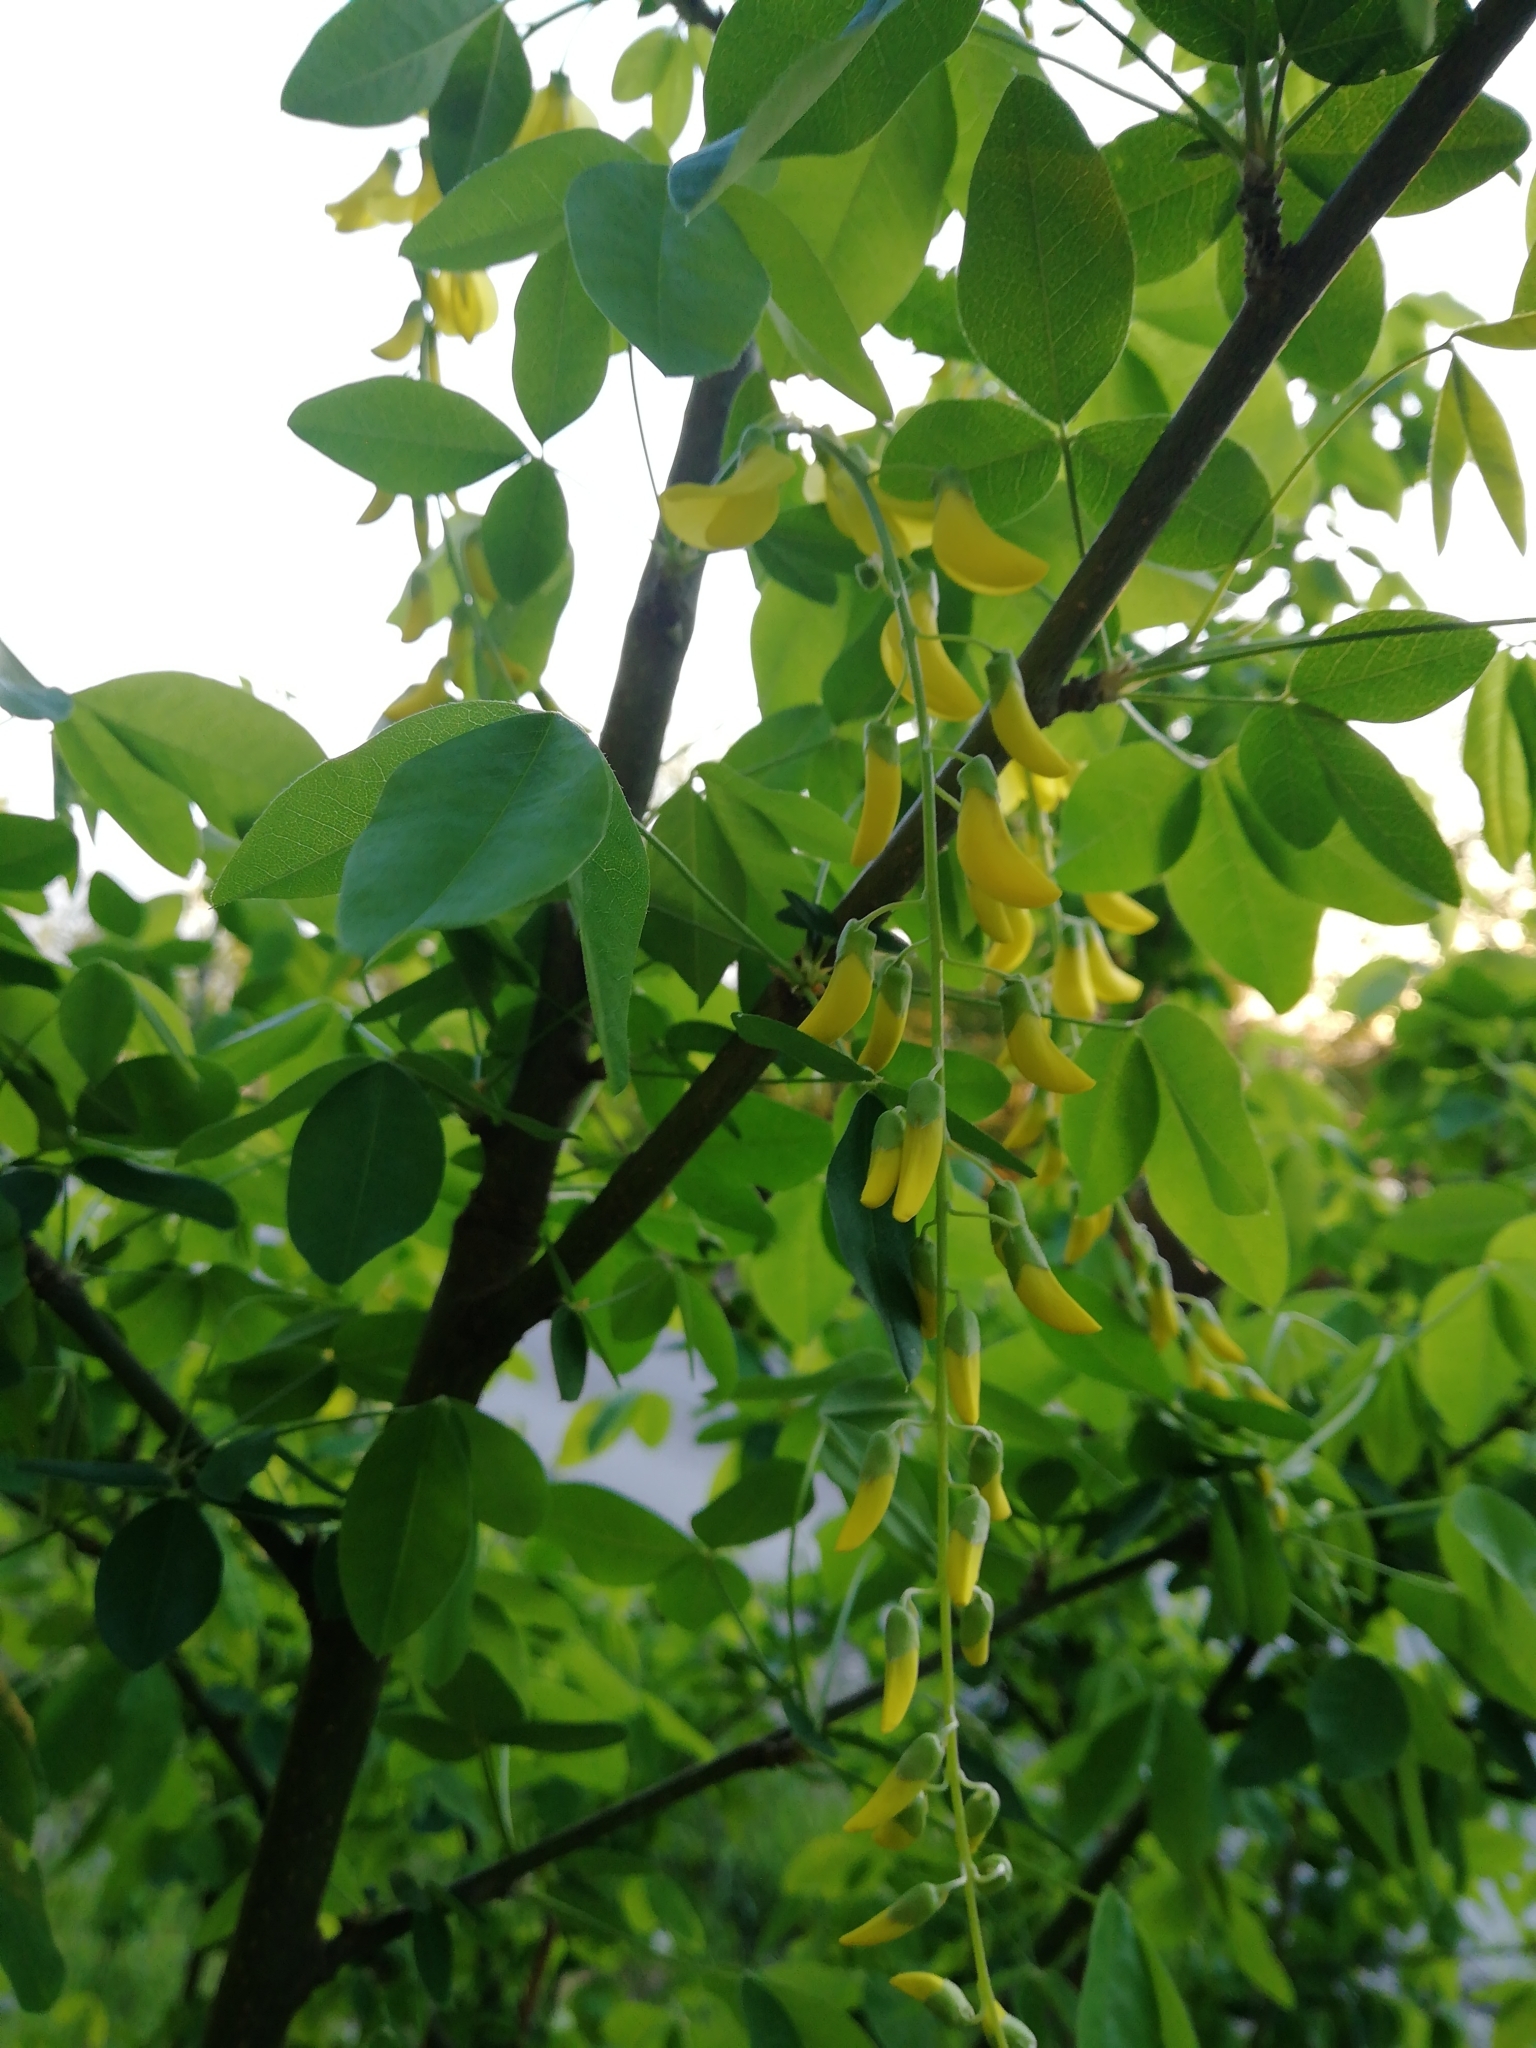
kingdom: Plantae
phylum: Tracheophyta
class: Magnoliopsida
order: Fabales
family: Fabaceae
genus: Laburnum
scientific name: Laburnum anagyroides
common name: Laburnum
